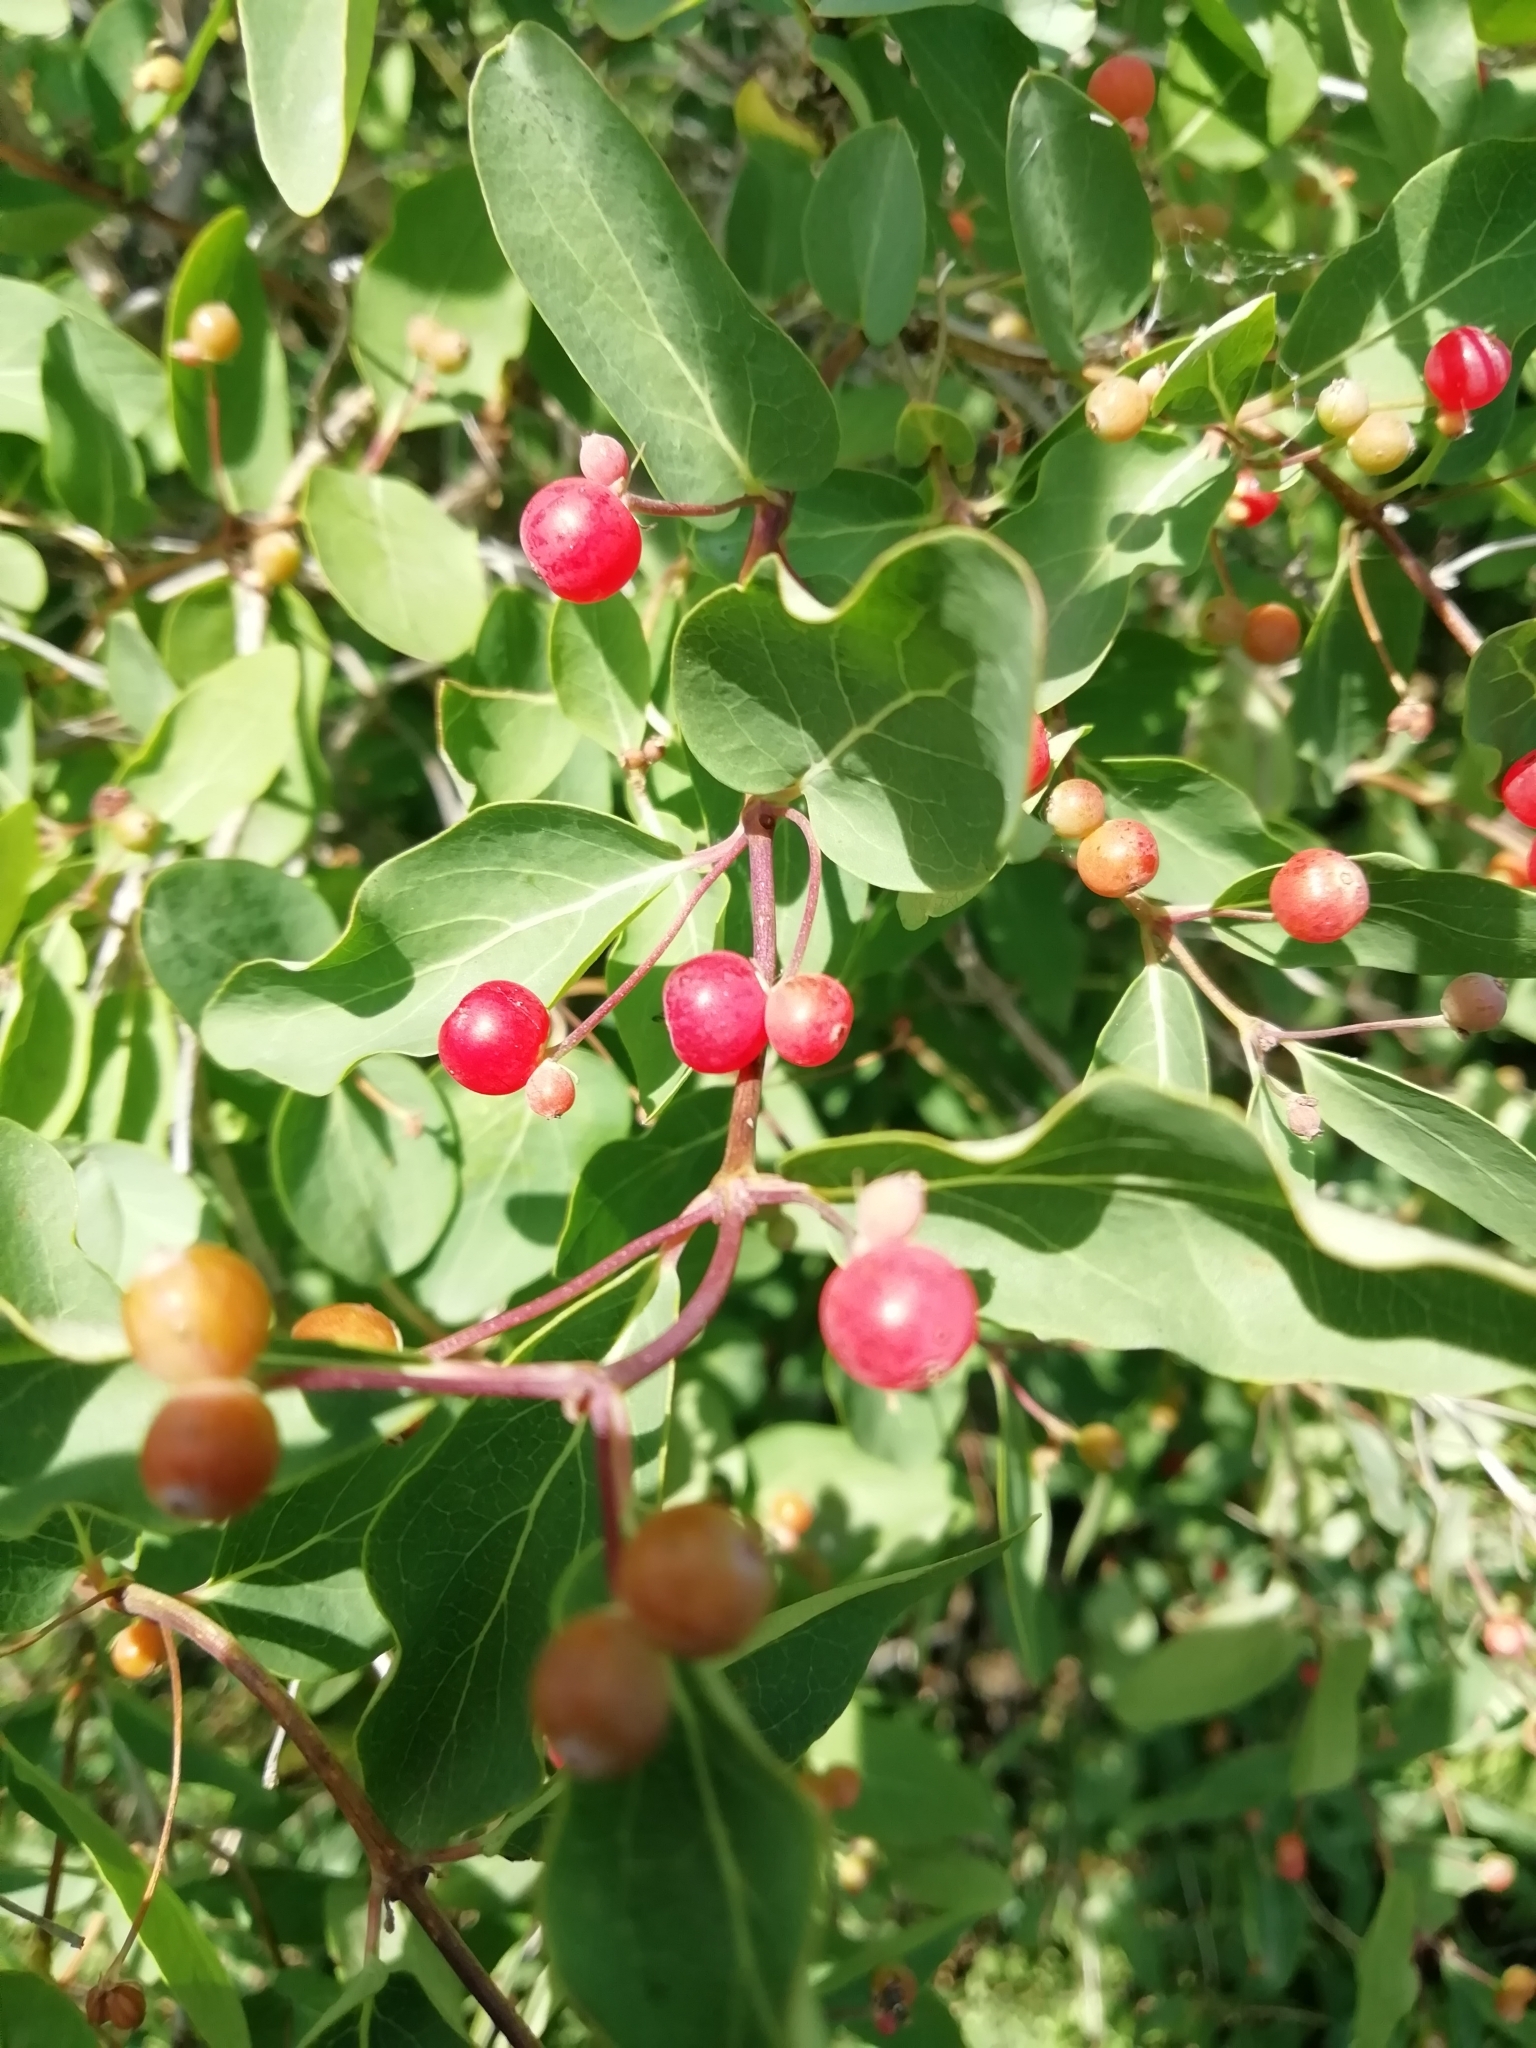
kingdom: Plantae
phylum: Tracheophyta
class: Magnoliopsida
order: Dipsacales
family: Caprifoliaceae
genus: Lonicera
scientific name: Lonicera tatarica
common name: Tatarian honeysuckle
